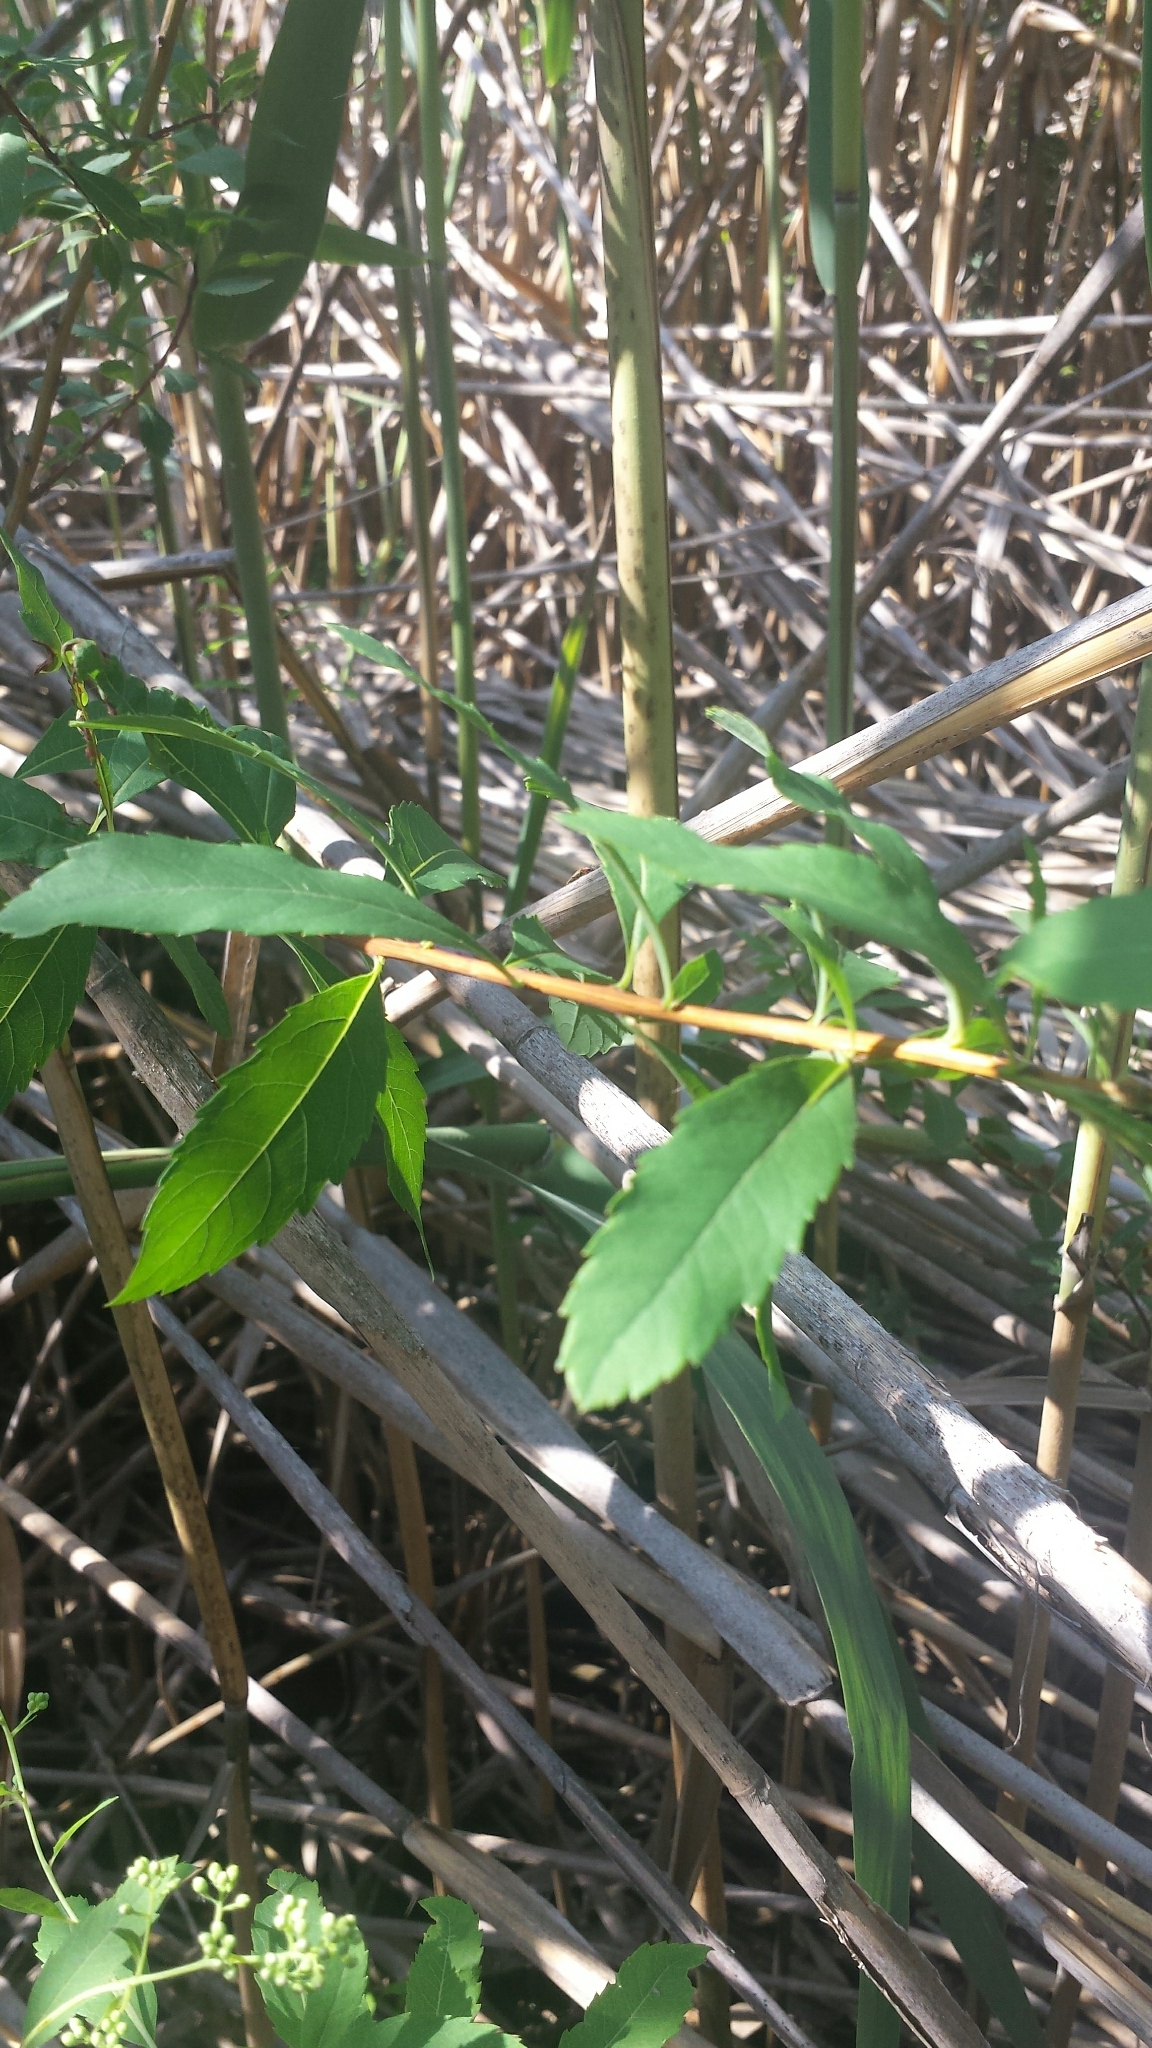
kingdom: Plantae
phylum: Tracheophyta
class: Magnoliopsida
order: Rosales
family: Rosaceae
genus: Spiraea
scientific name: Spiraea alba
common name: Pale bridewort
